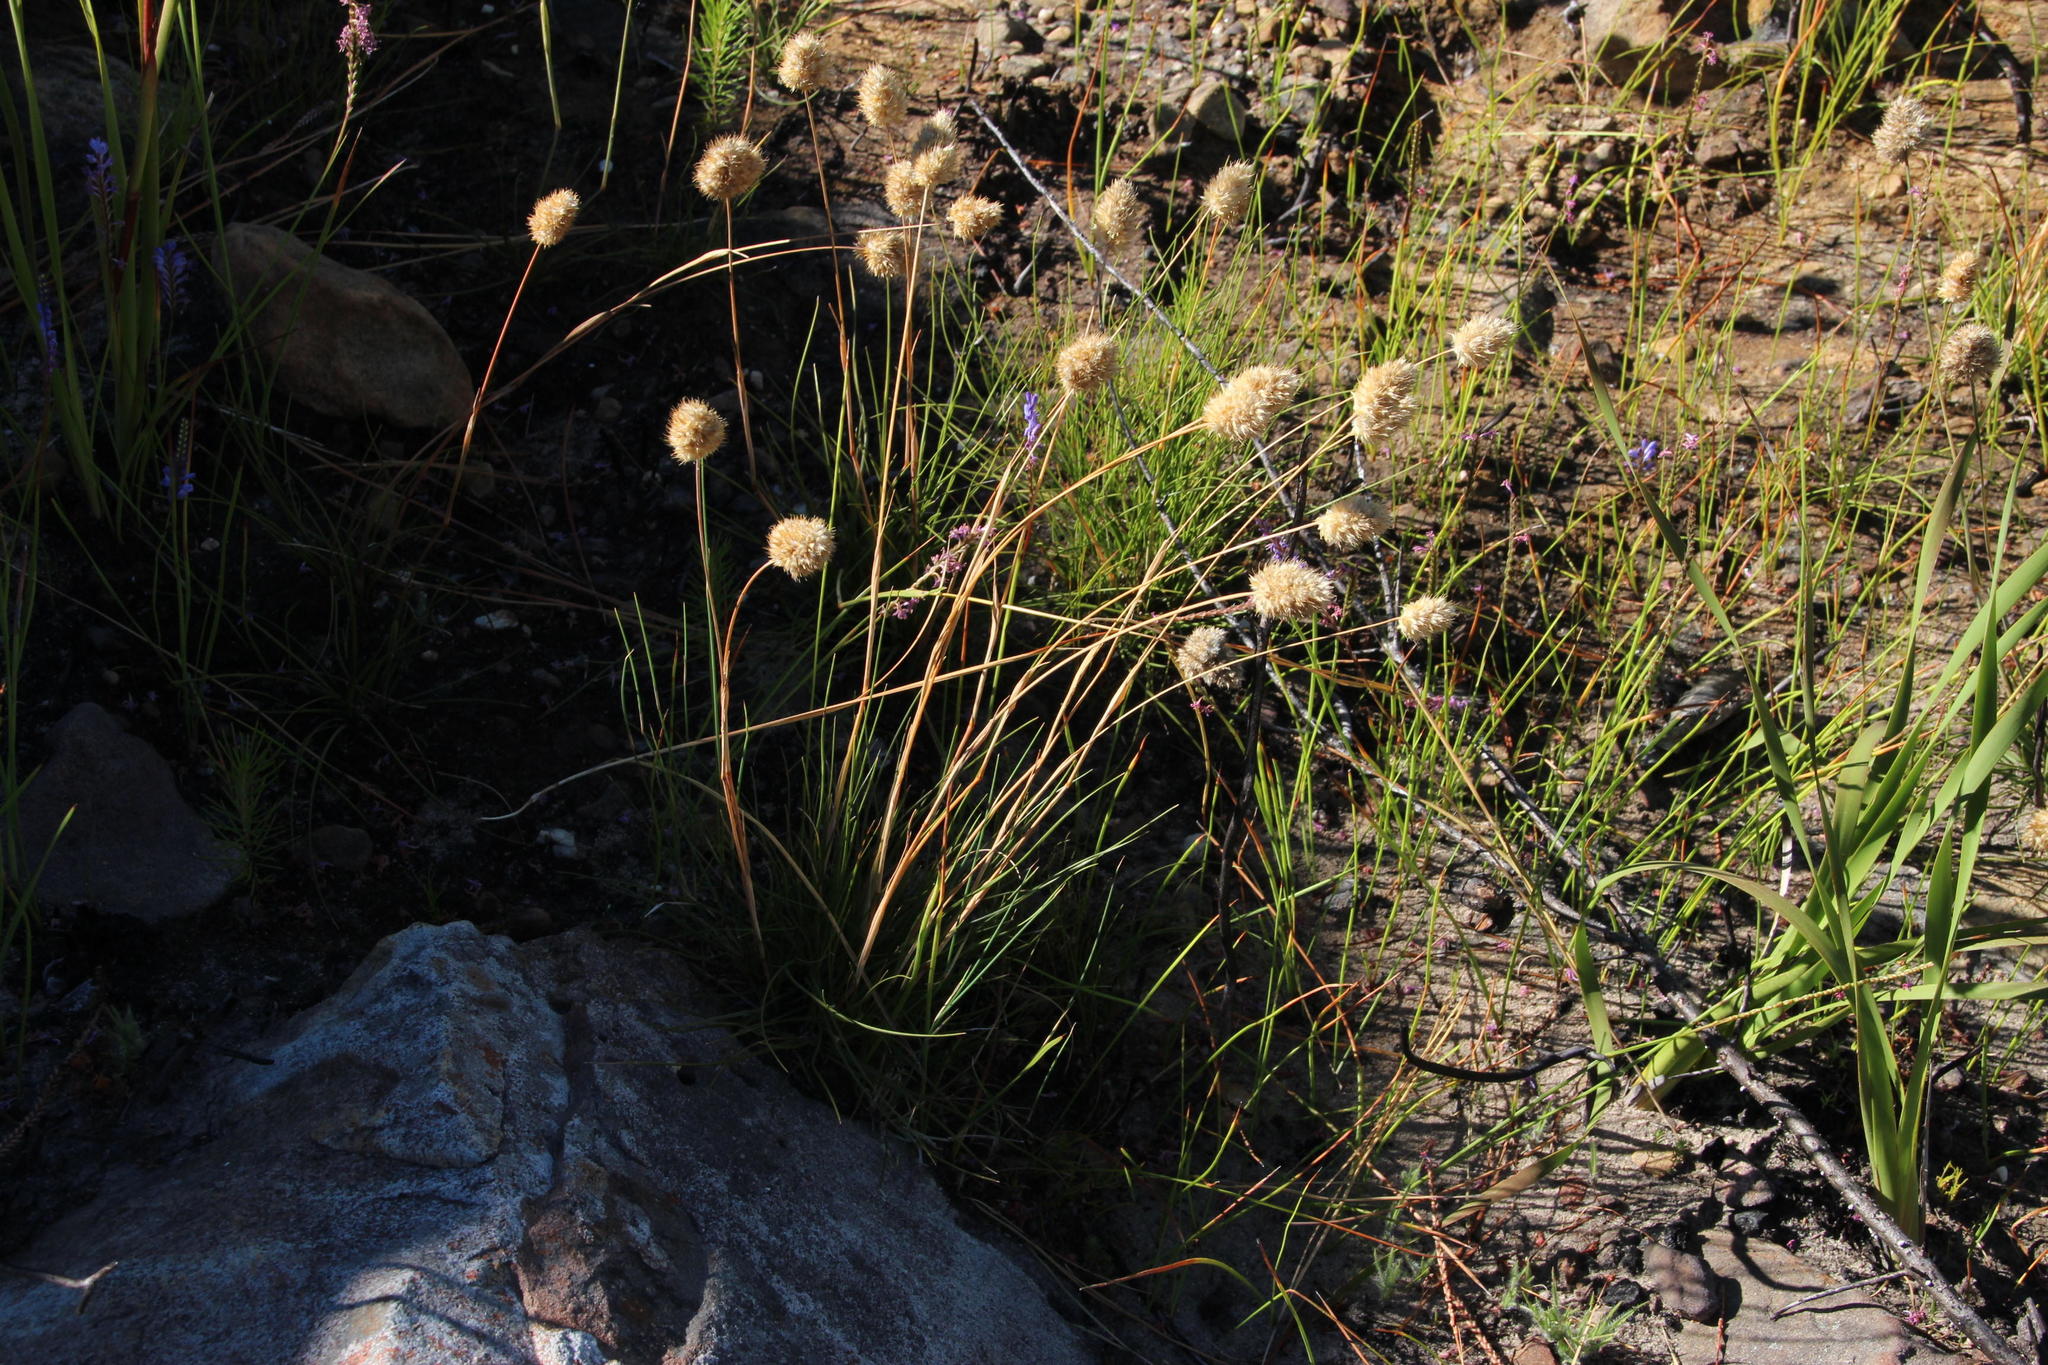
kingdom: Plantae
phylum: Tracheophyta
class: Liliopsida
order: Poales
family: Poaceae
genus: Geochloa
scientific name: Geochloa rufa
